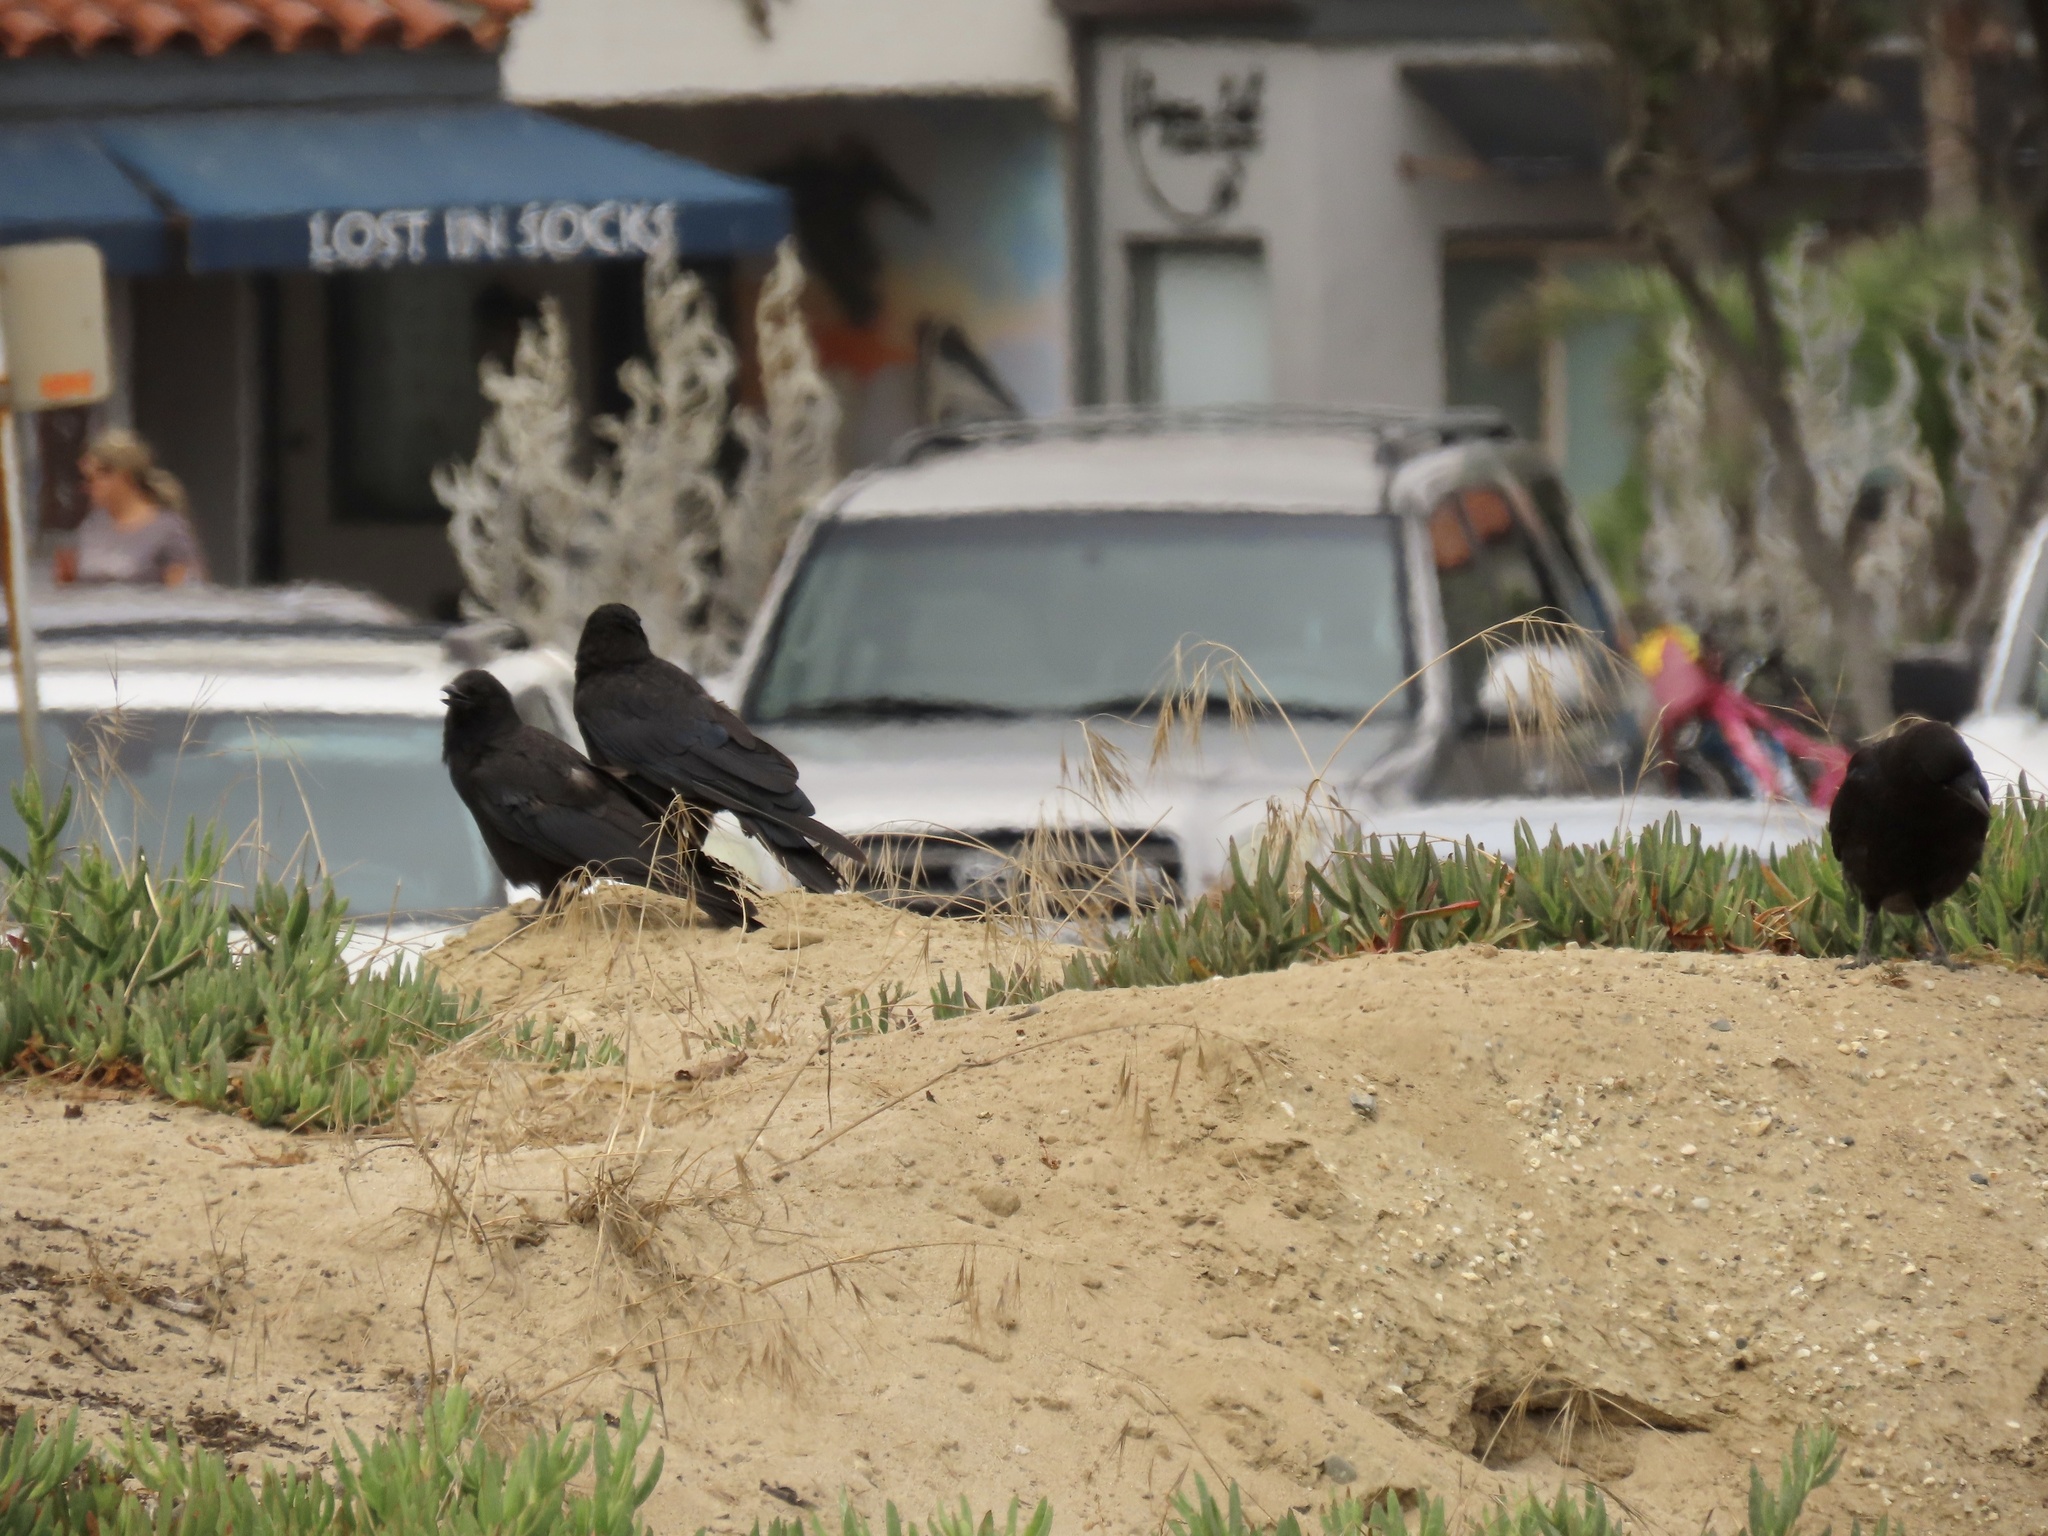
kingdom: Animalia
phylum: Chordata
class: Aves
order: Passeriformes
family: Corvidae
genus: Corvus
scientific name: Corvus brachyrhynchos
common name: American crow
